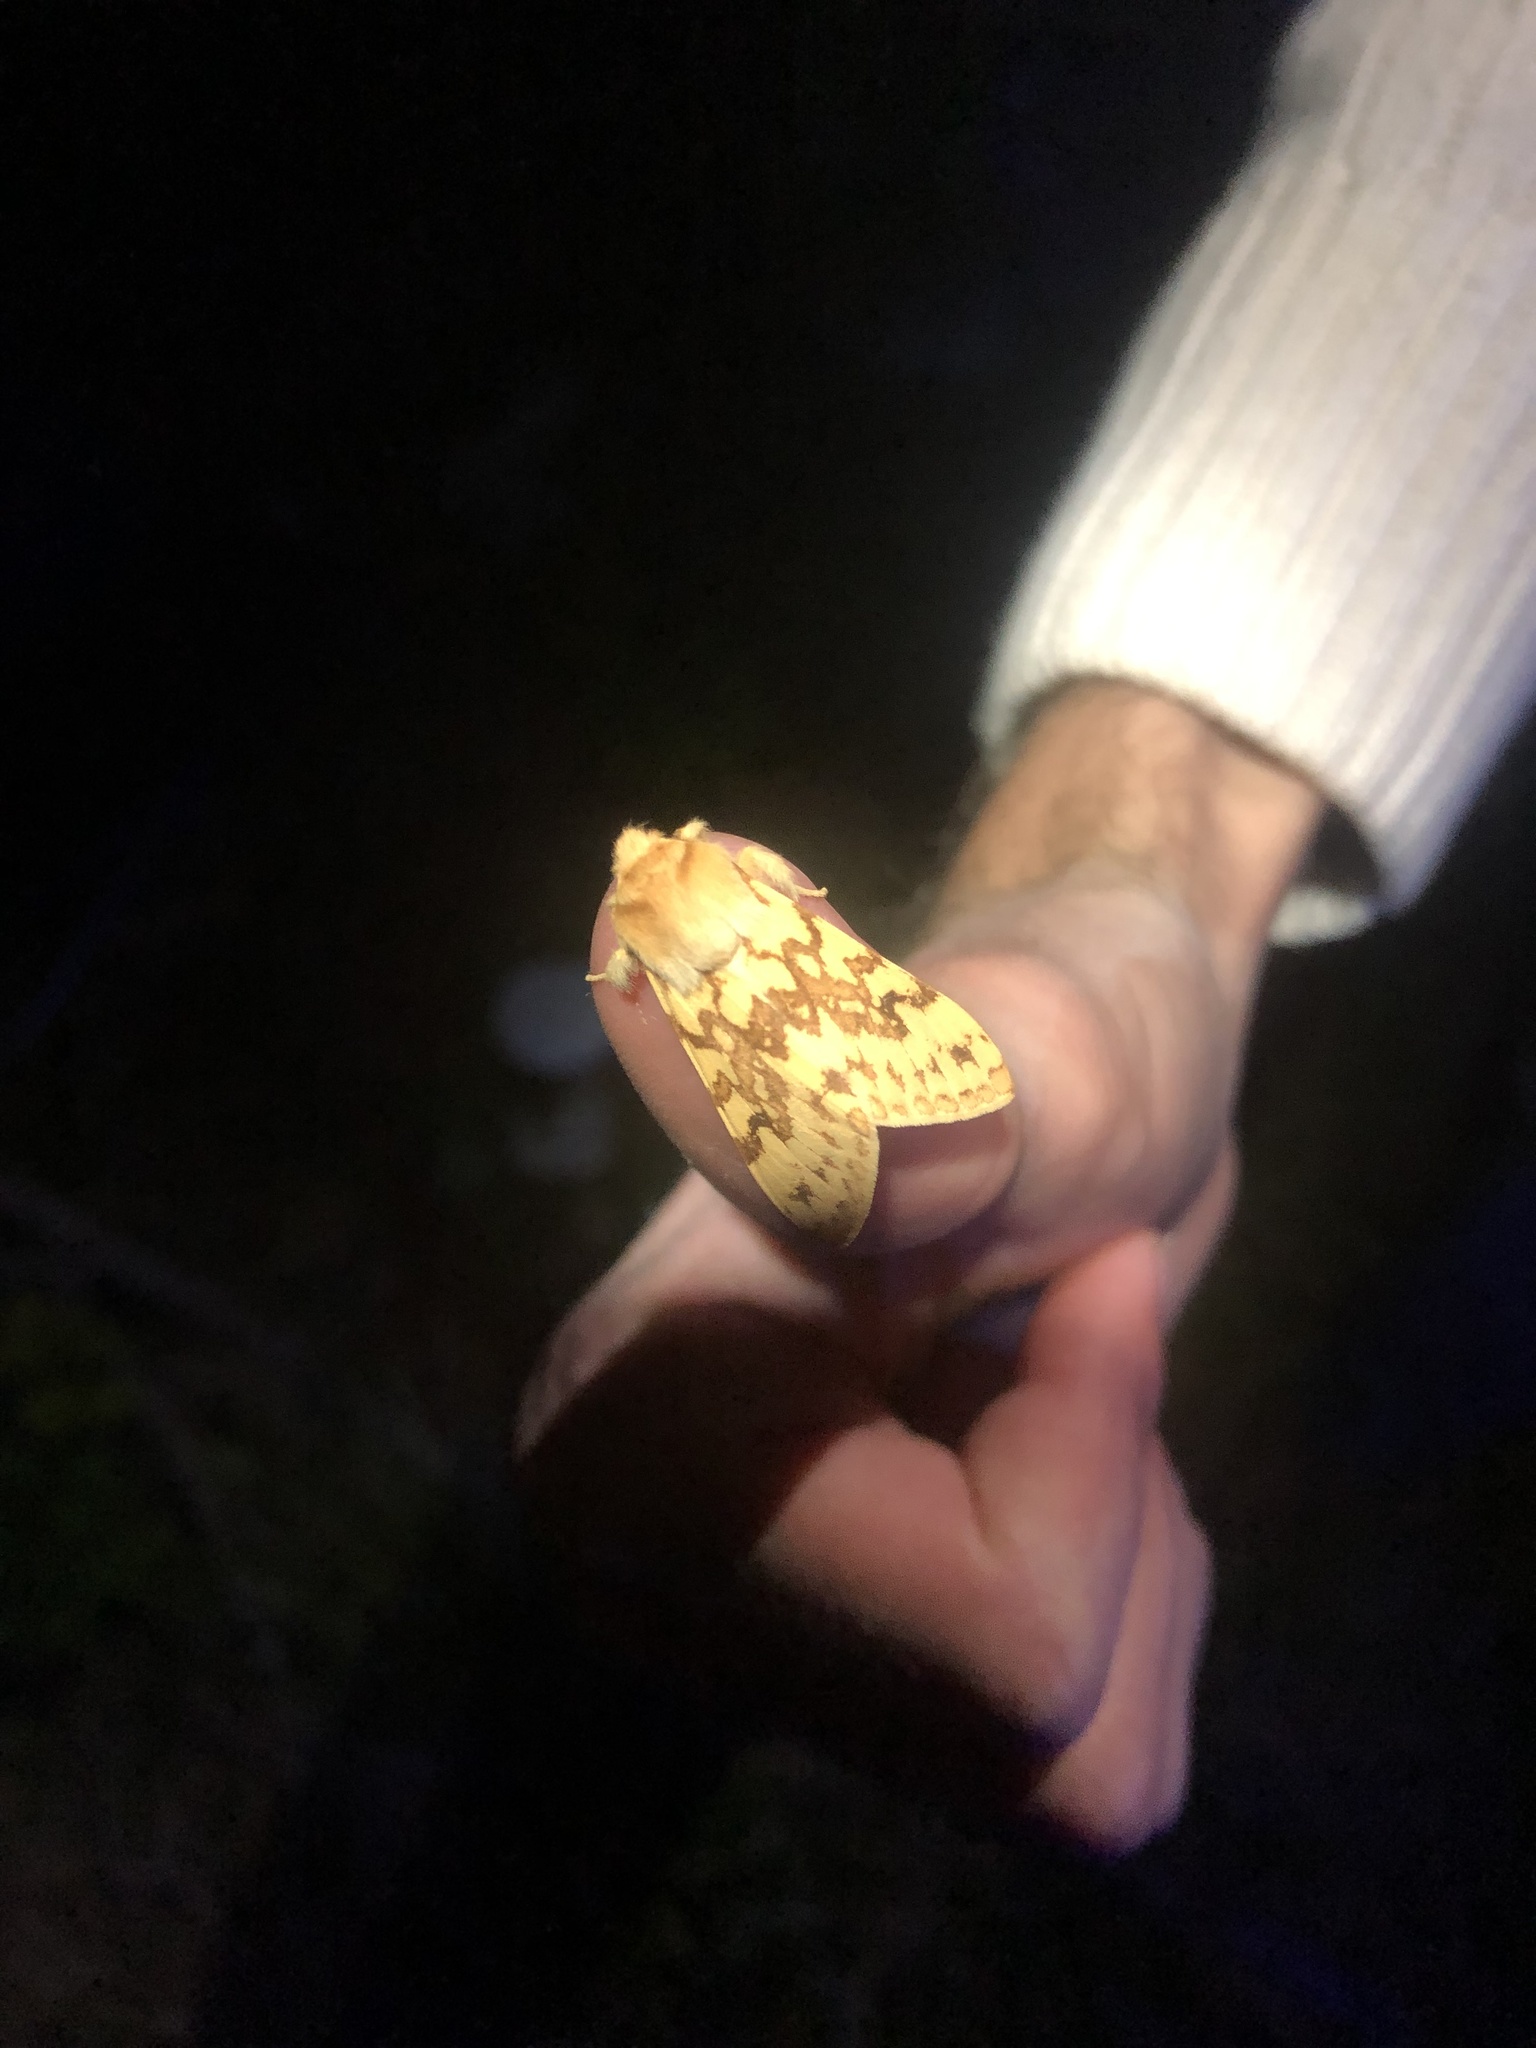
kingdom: Animalia
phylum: Arthropoda
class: Insecta
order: Lepidoptera
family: Erebidae
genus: Lophocampa
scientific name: Lophocampa maculata
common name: Spotted tussock moth
